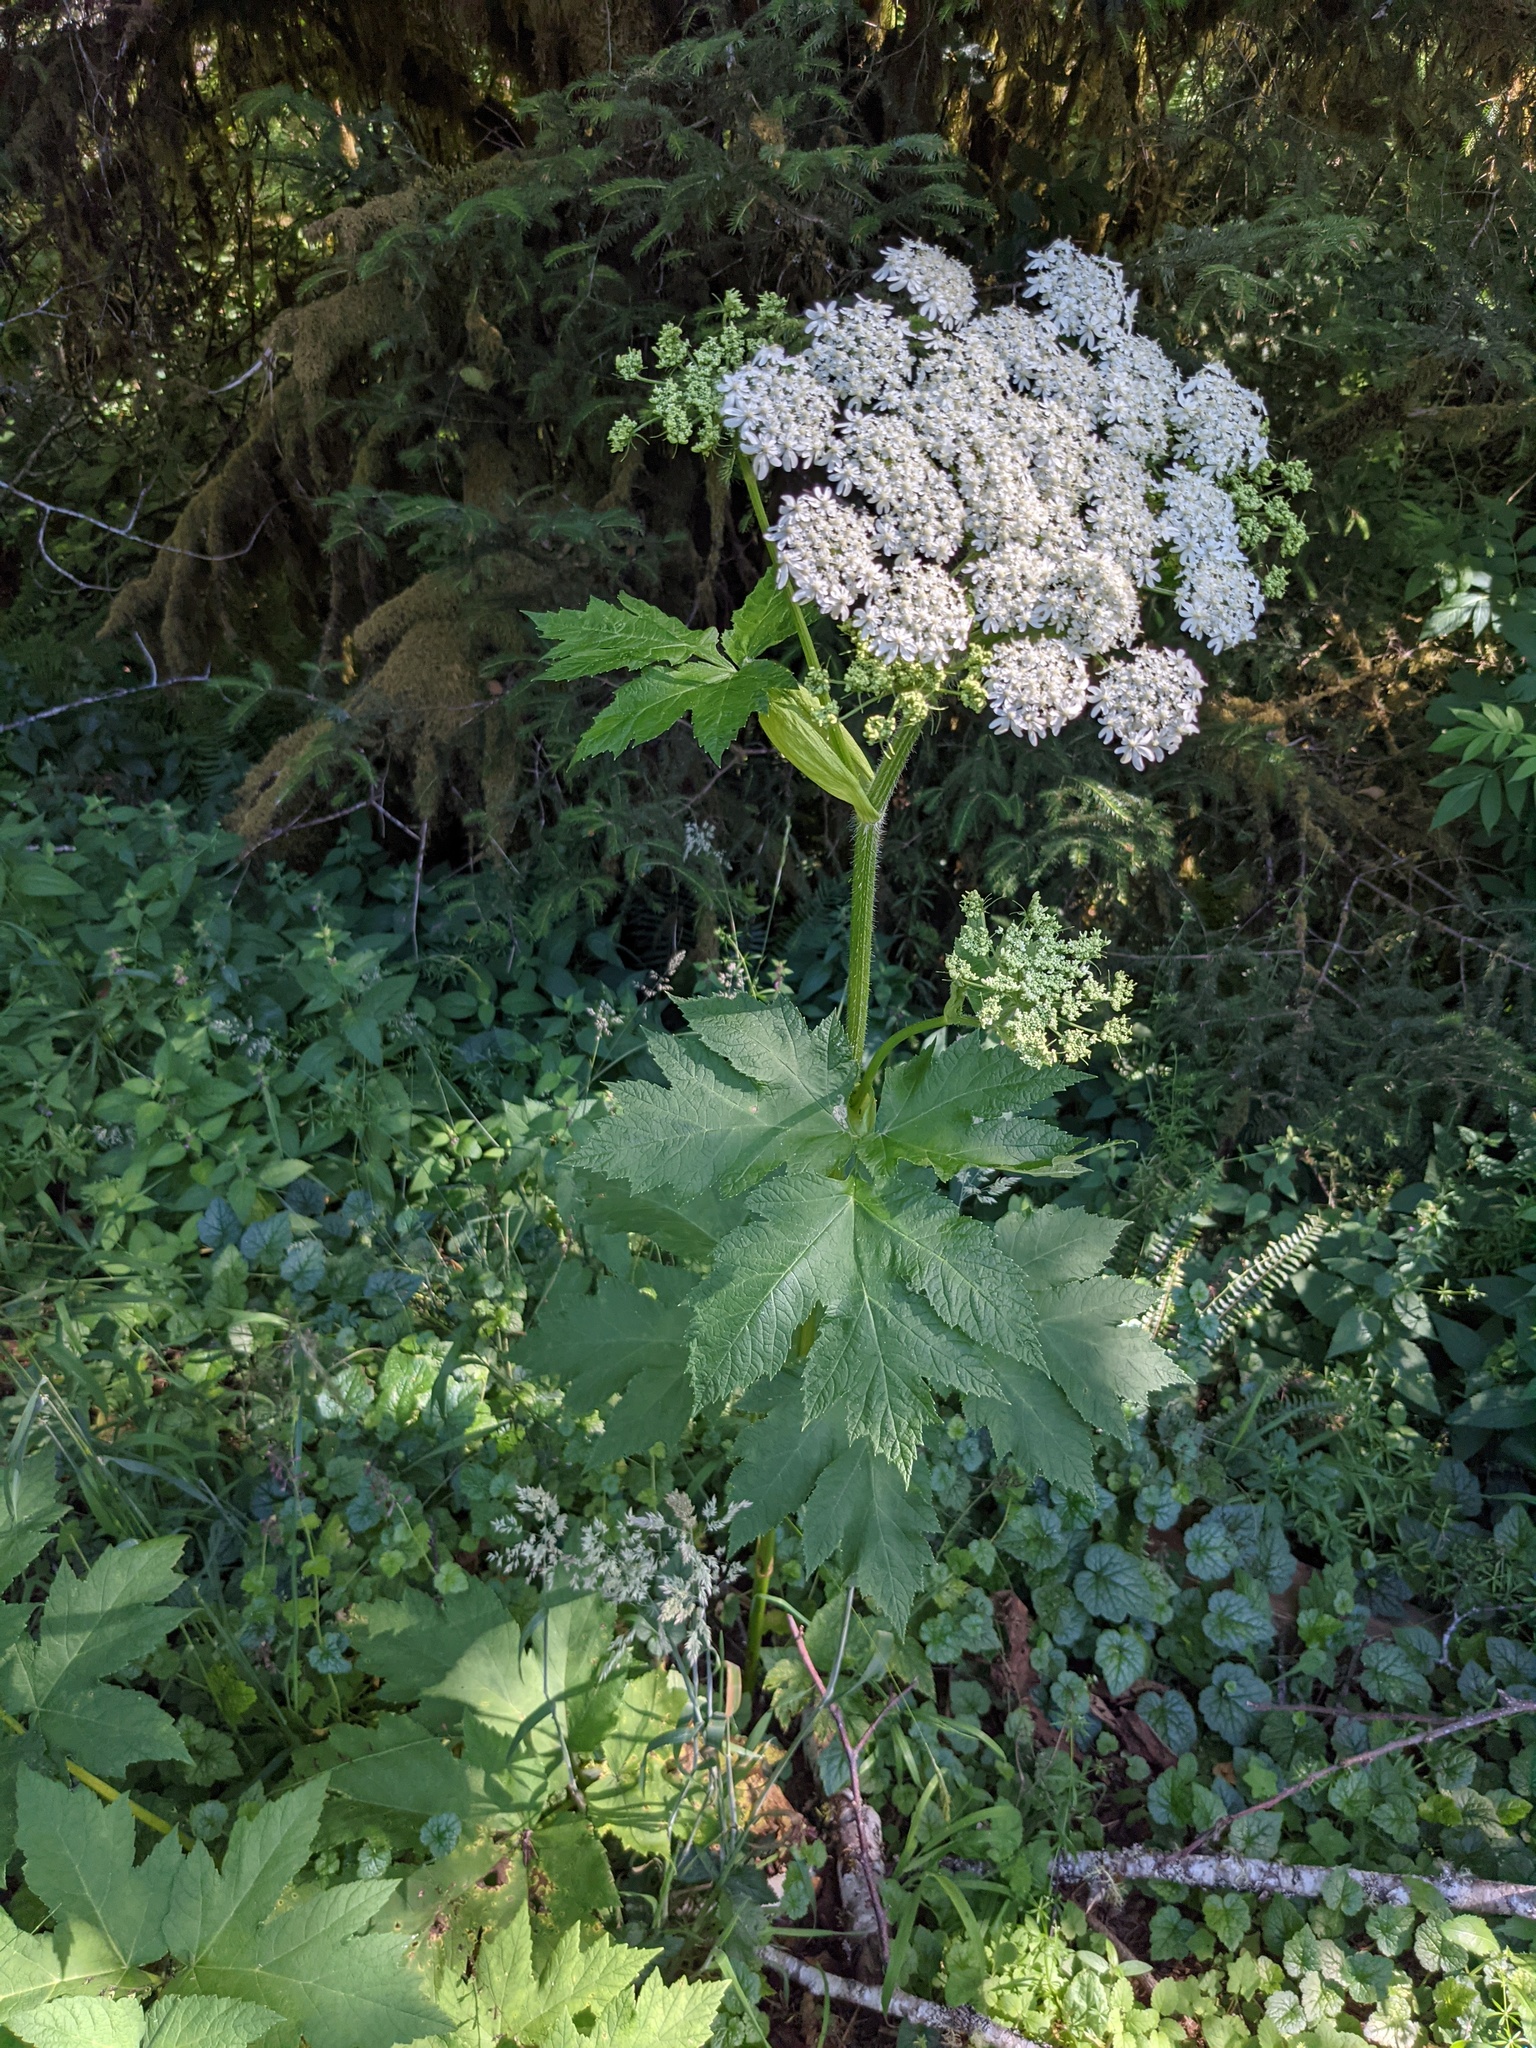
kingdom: Plantae
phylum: Tracheophyta
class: Magnoliopsida
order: Apiales
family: Apiaceae
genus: Heracleum
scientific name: Heracleum maximum
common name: American cow parsnip
